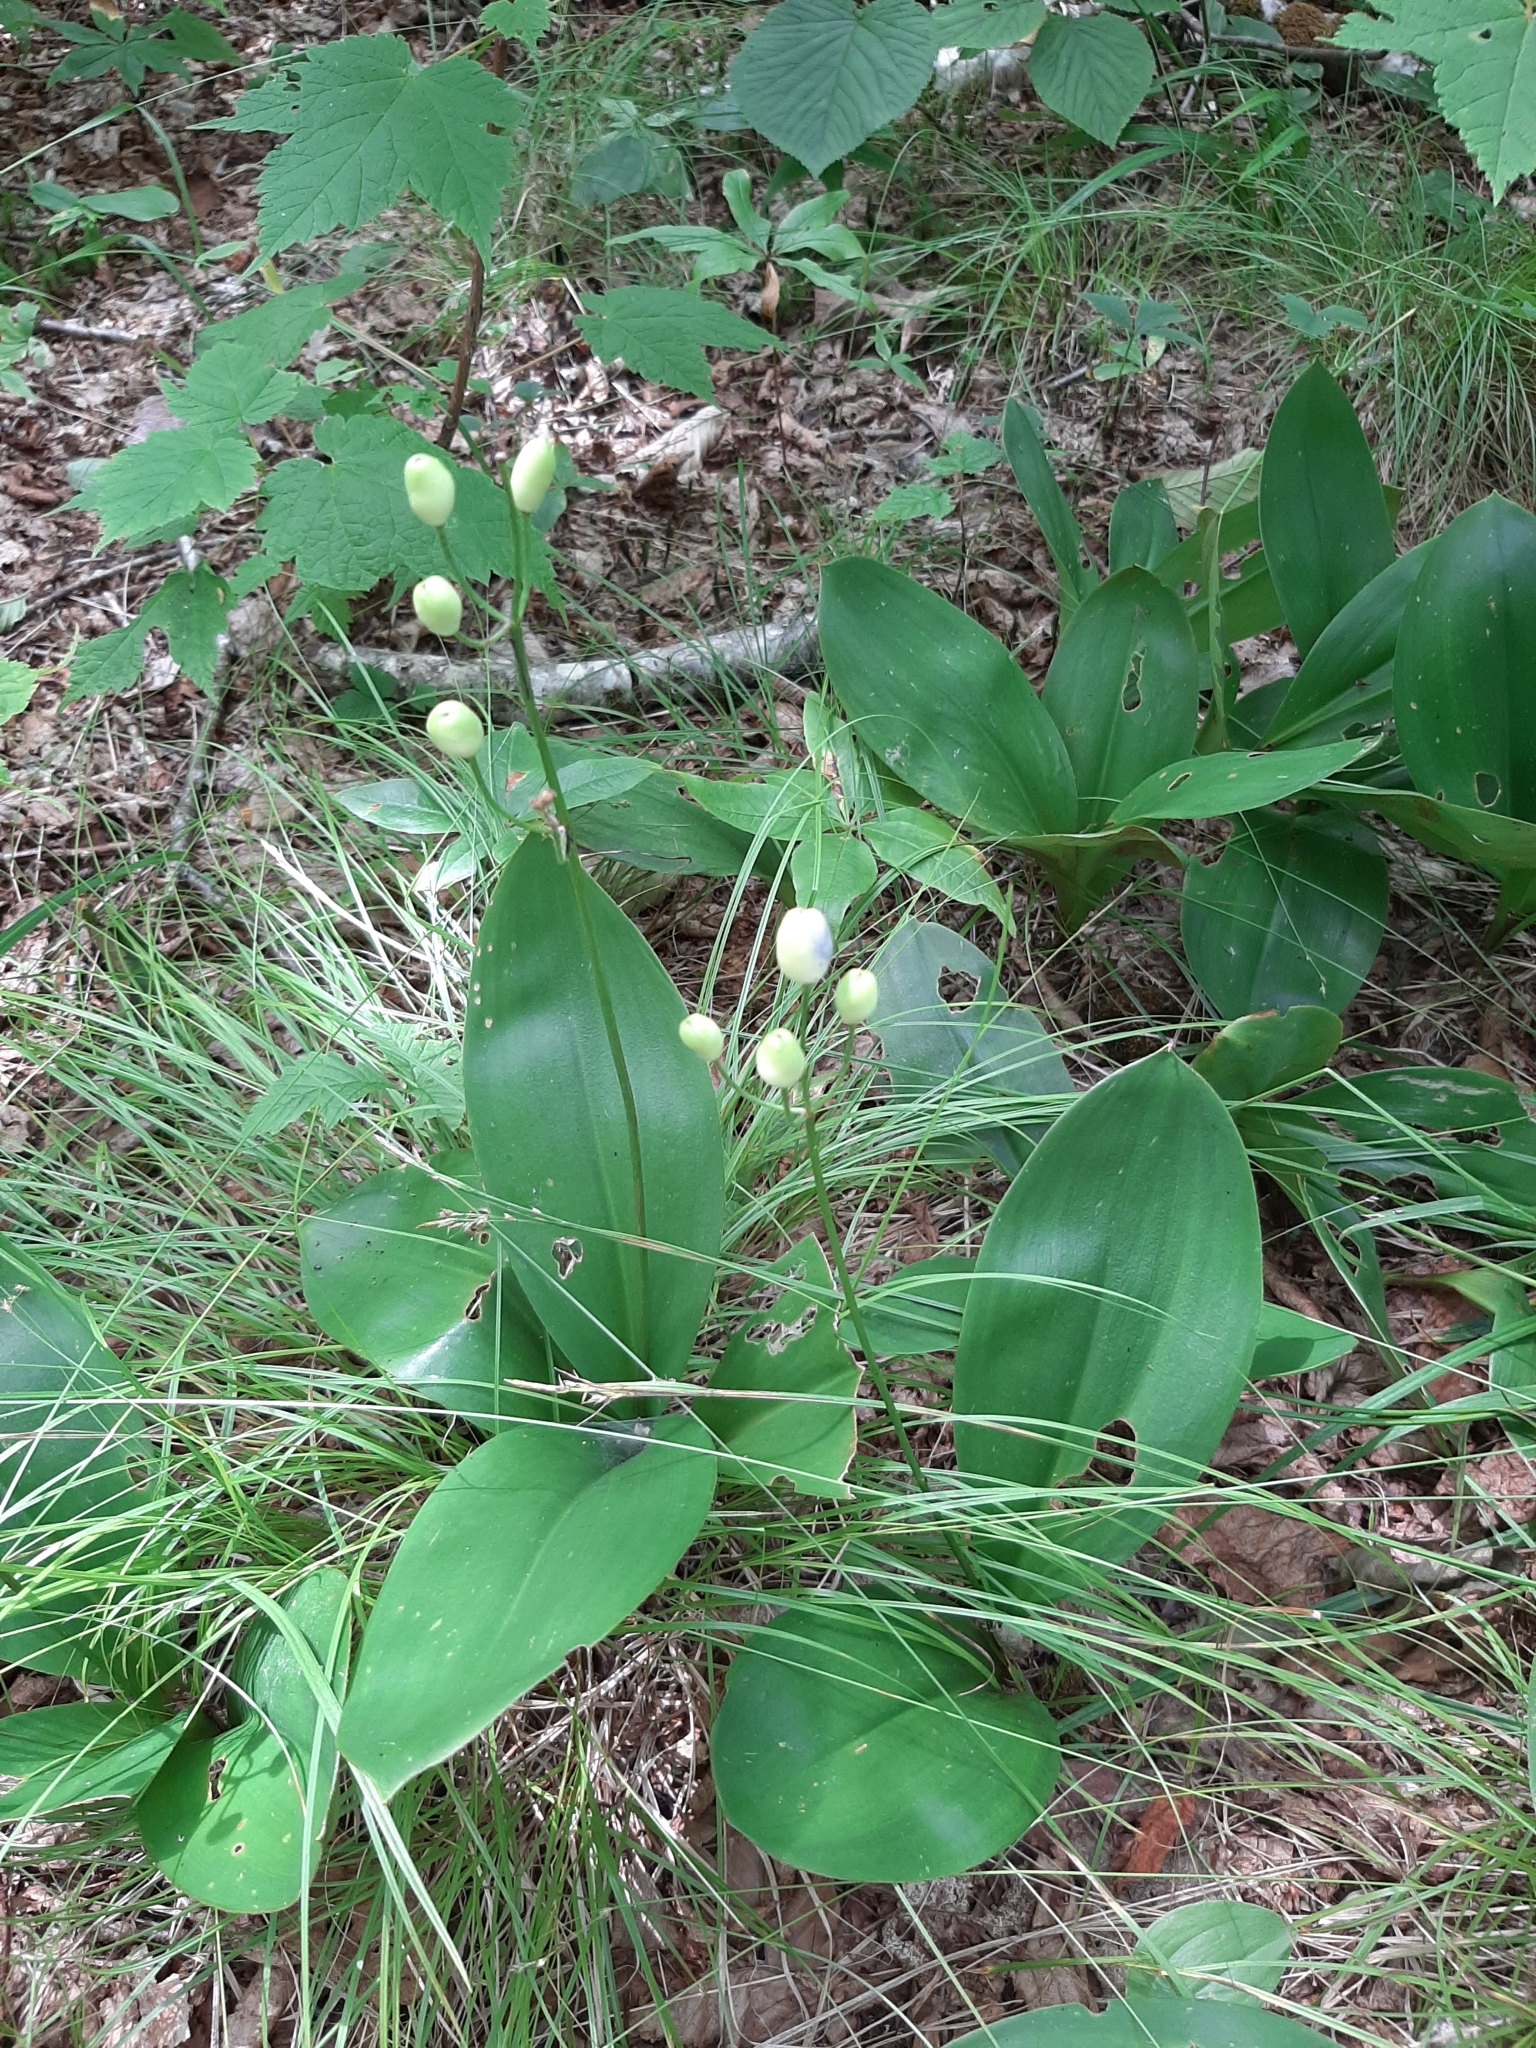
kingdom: Plantae
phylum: Tracheophyta
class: Liliopsida
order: Liliales
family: Liliaceae
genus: Clintonia
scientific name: Clintonia borealis
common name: Yellow clintonia
